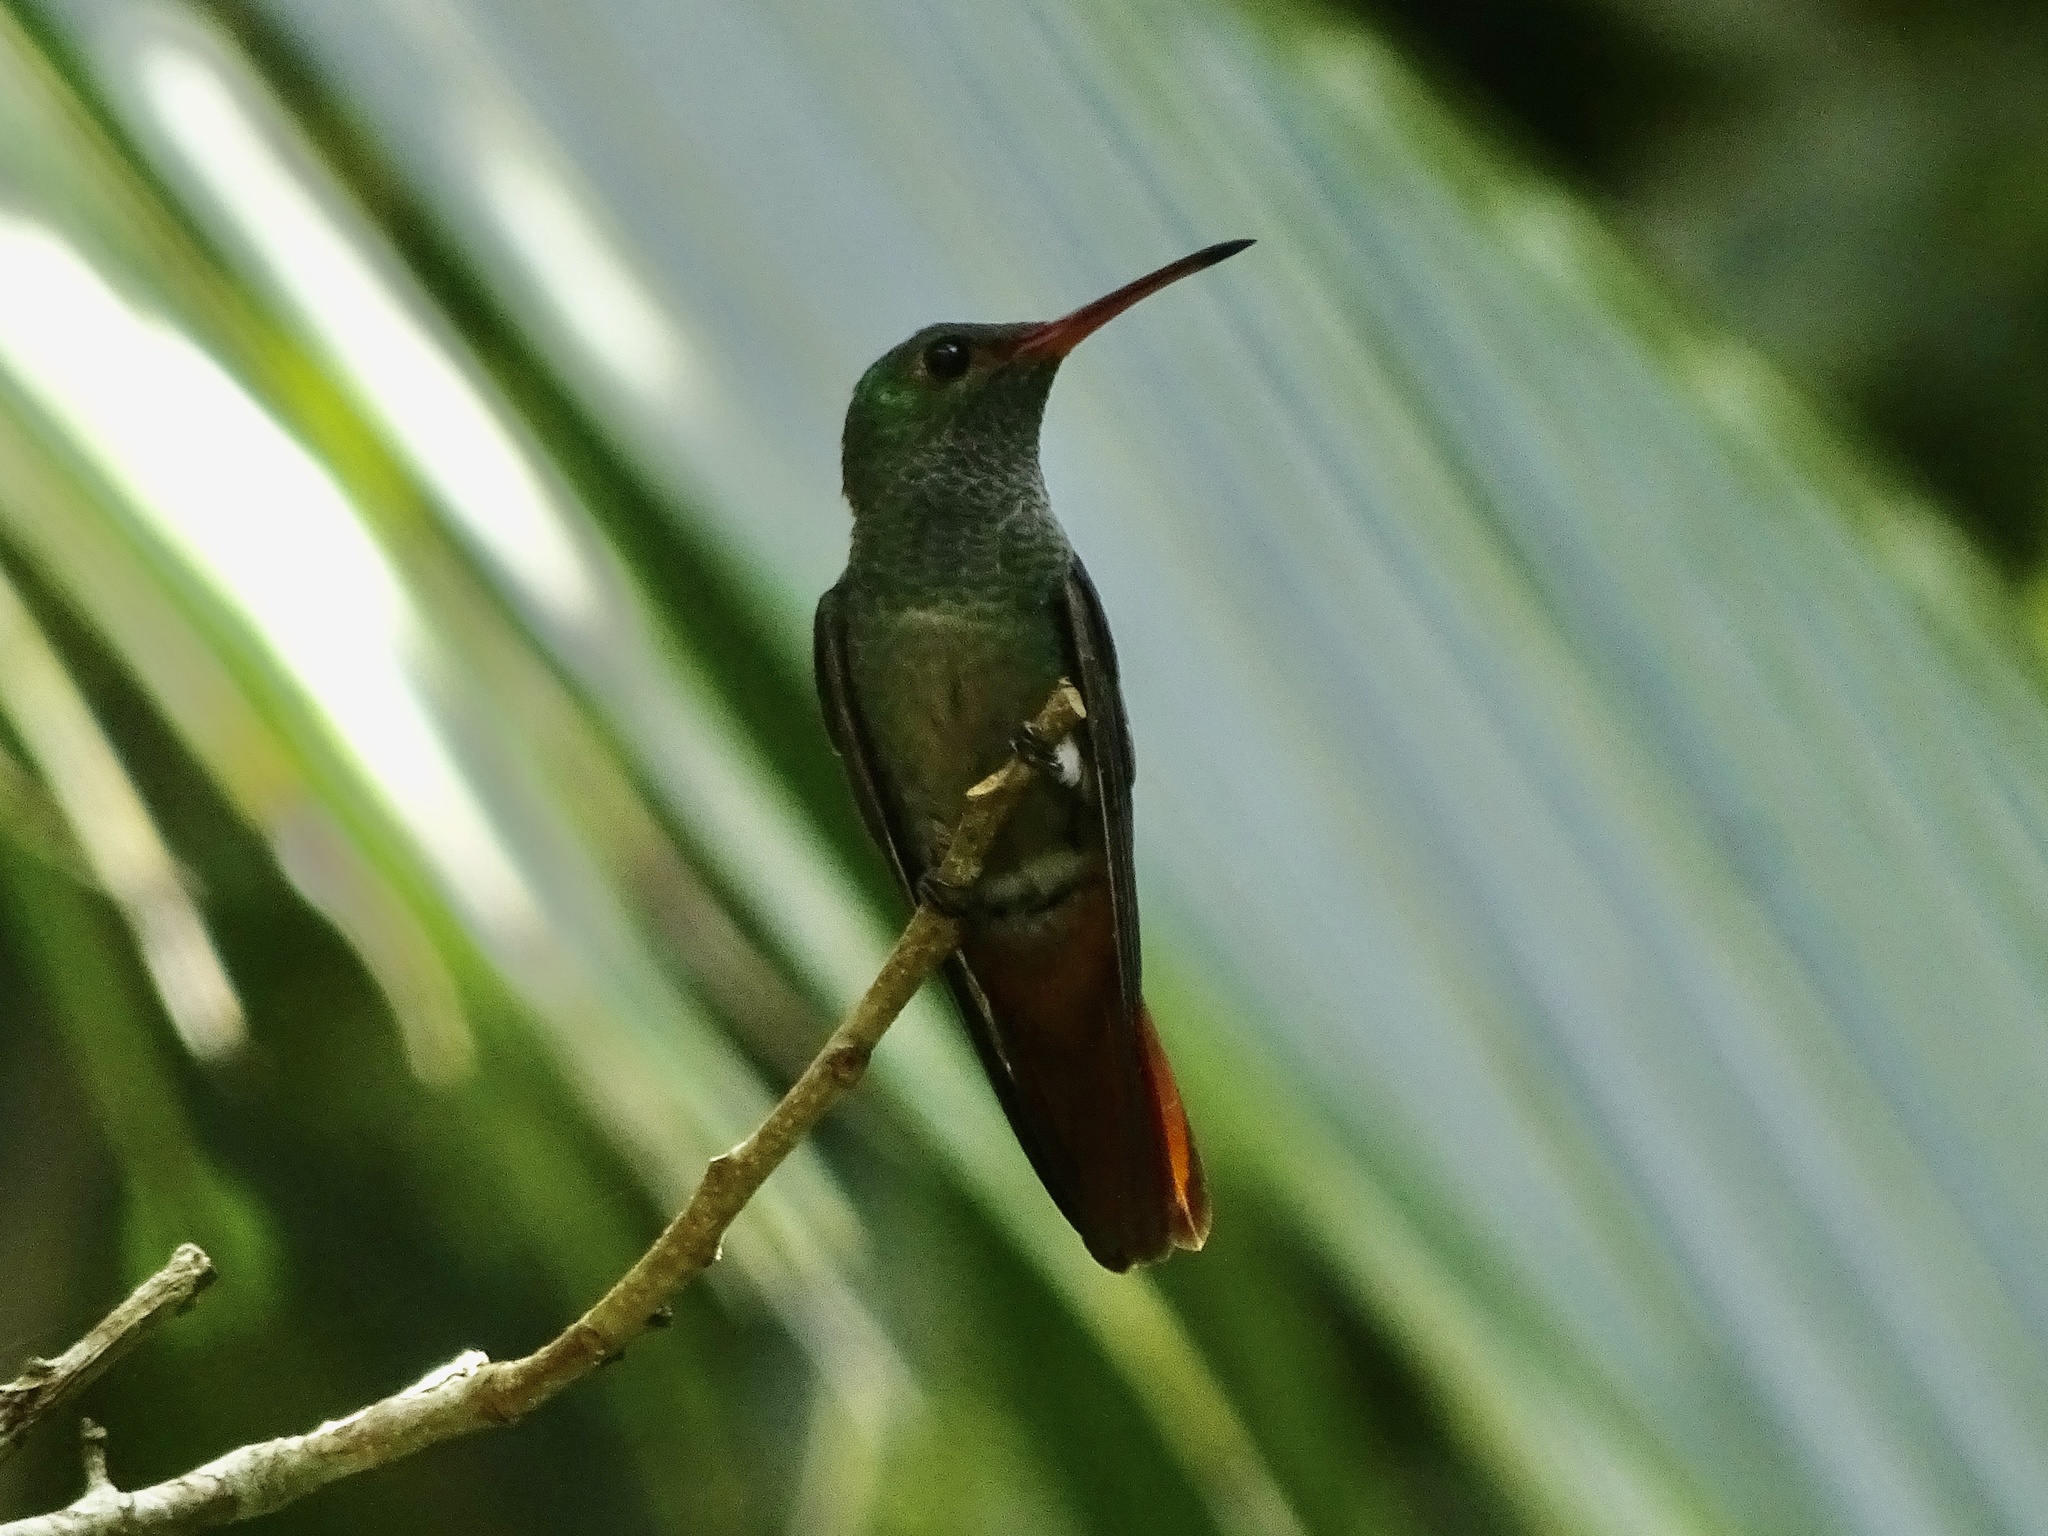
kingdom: Animalia
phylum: Chordata
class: Aves
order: Apodiformes
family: Trochilidae
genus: Amazilia
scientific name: Amazilia tzacatl
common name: Rufous-tailed hummingbird
